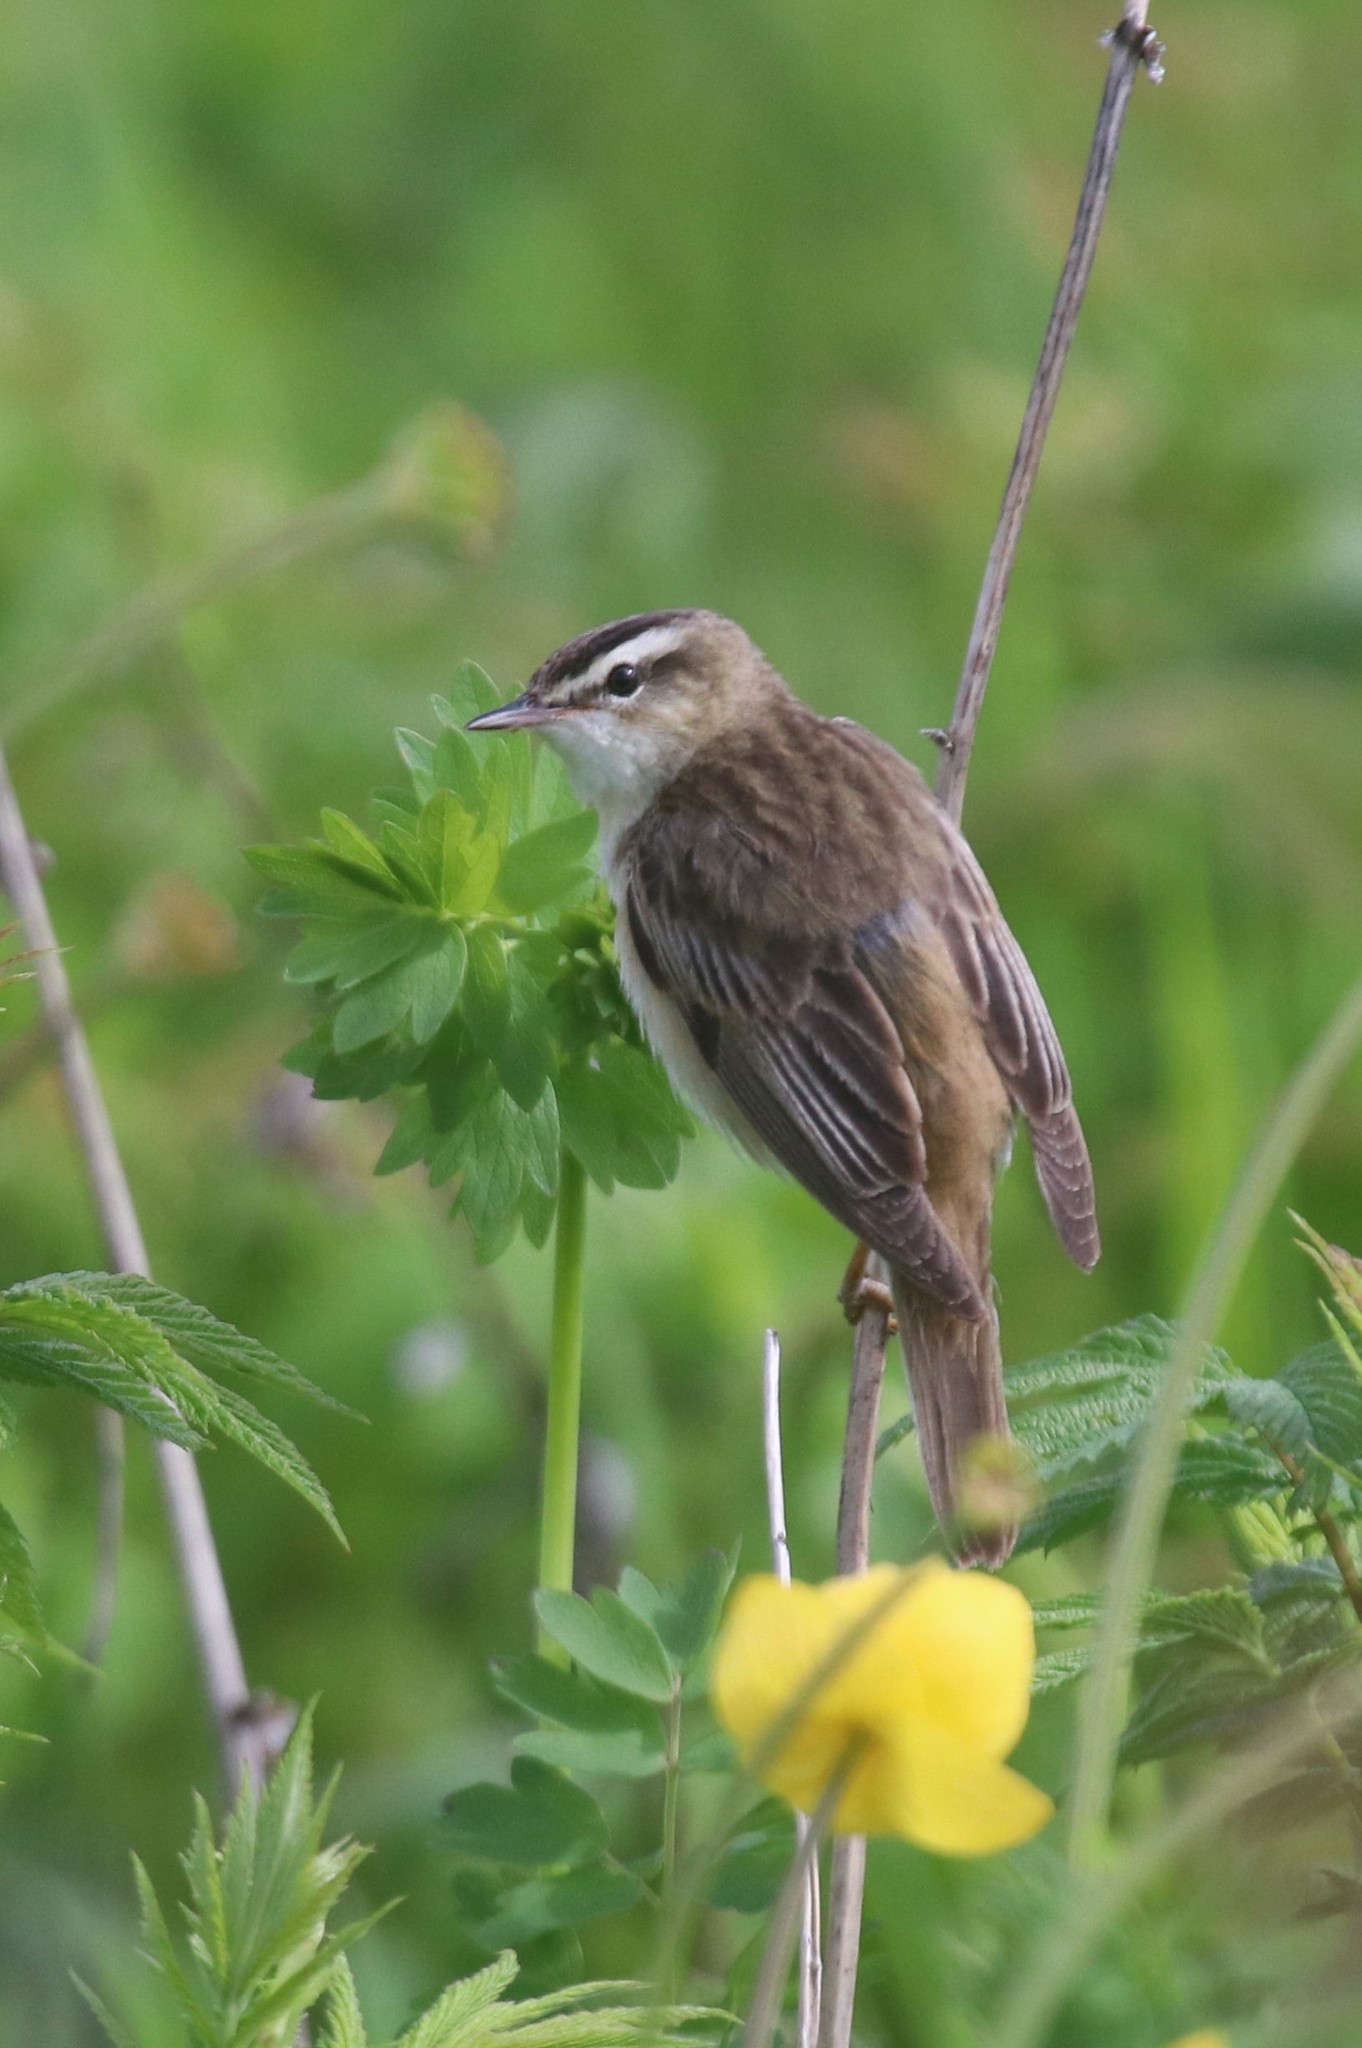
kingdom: Animalia
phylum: Chordata
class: Aves
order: Passeriformes
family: Acrocephalidae
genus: Acrocephalus
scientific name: Acrocephalus schoenobaenus
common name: Sedge warbler
